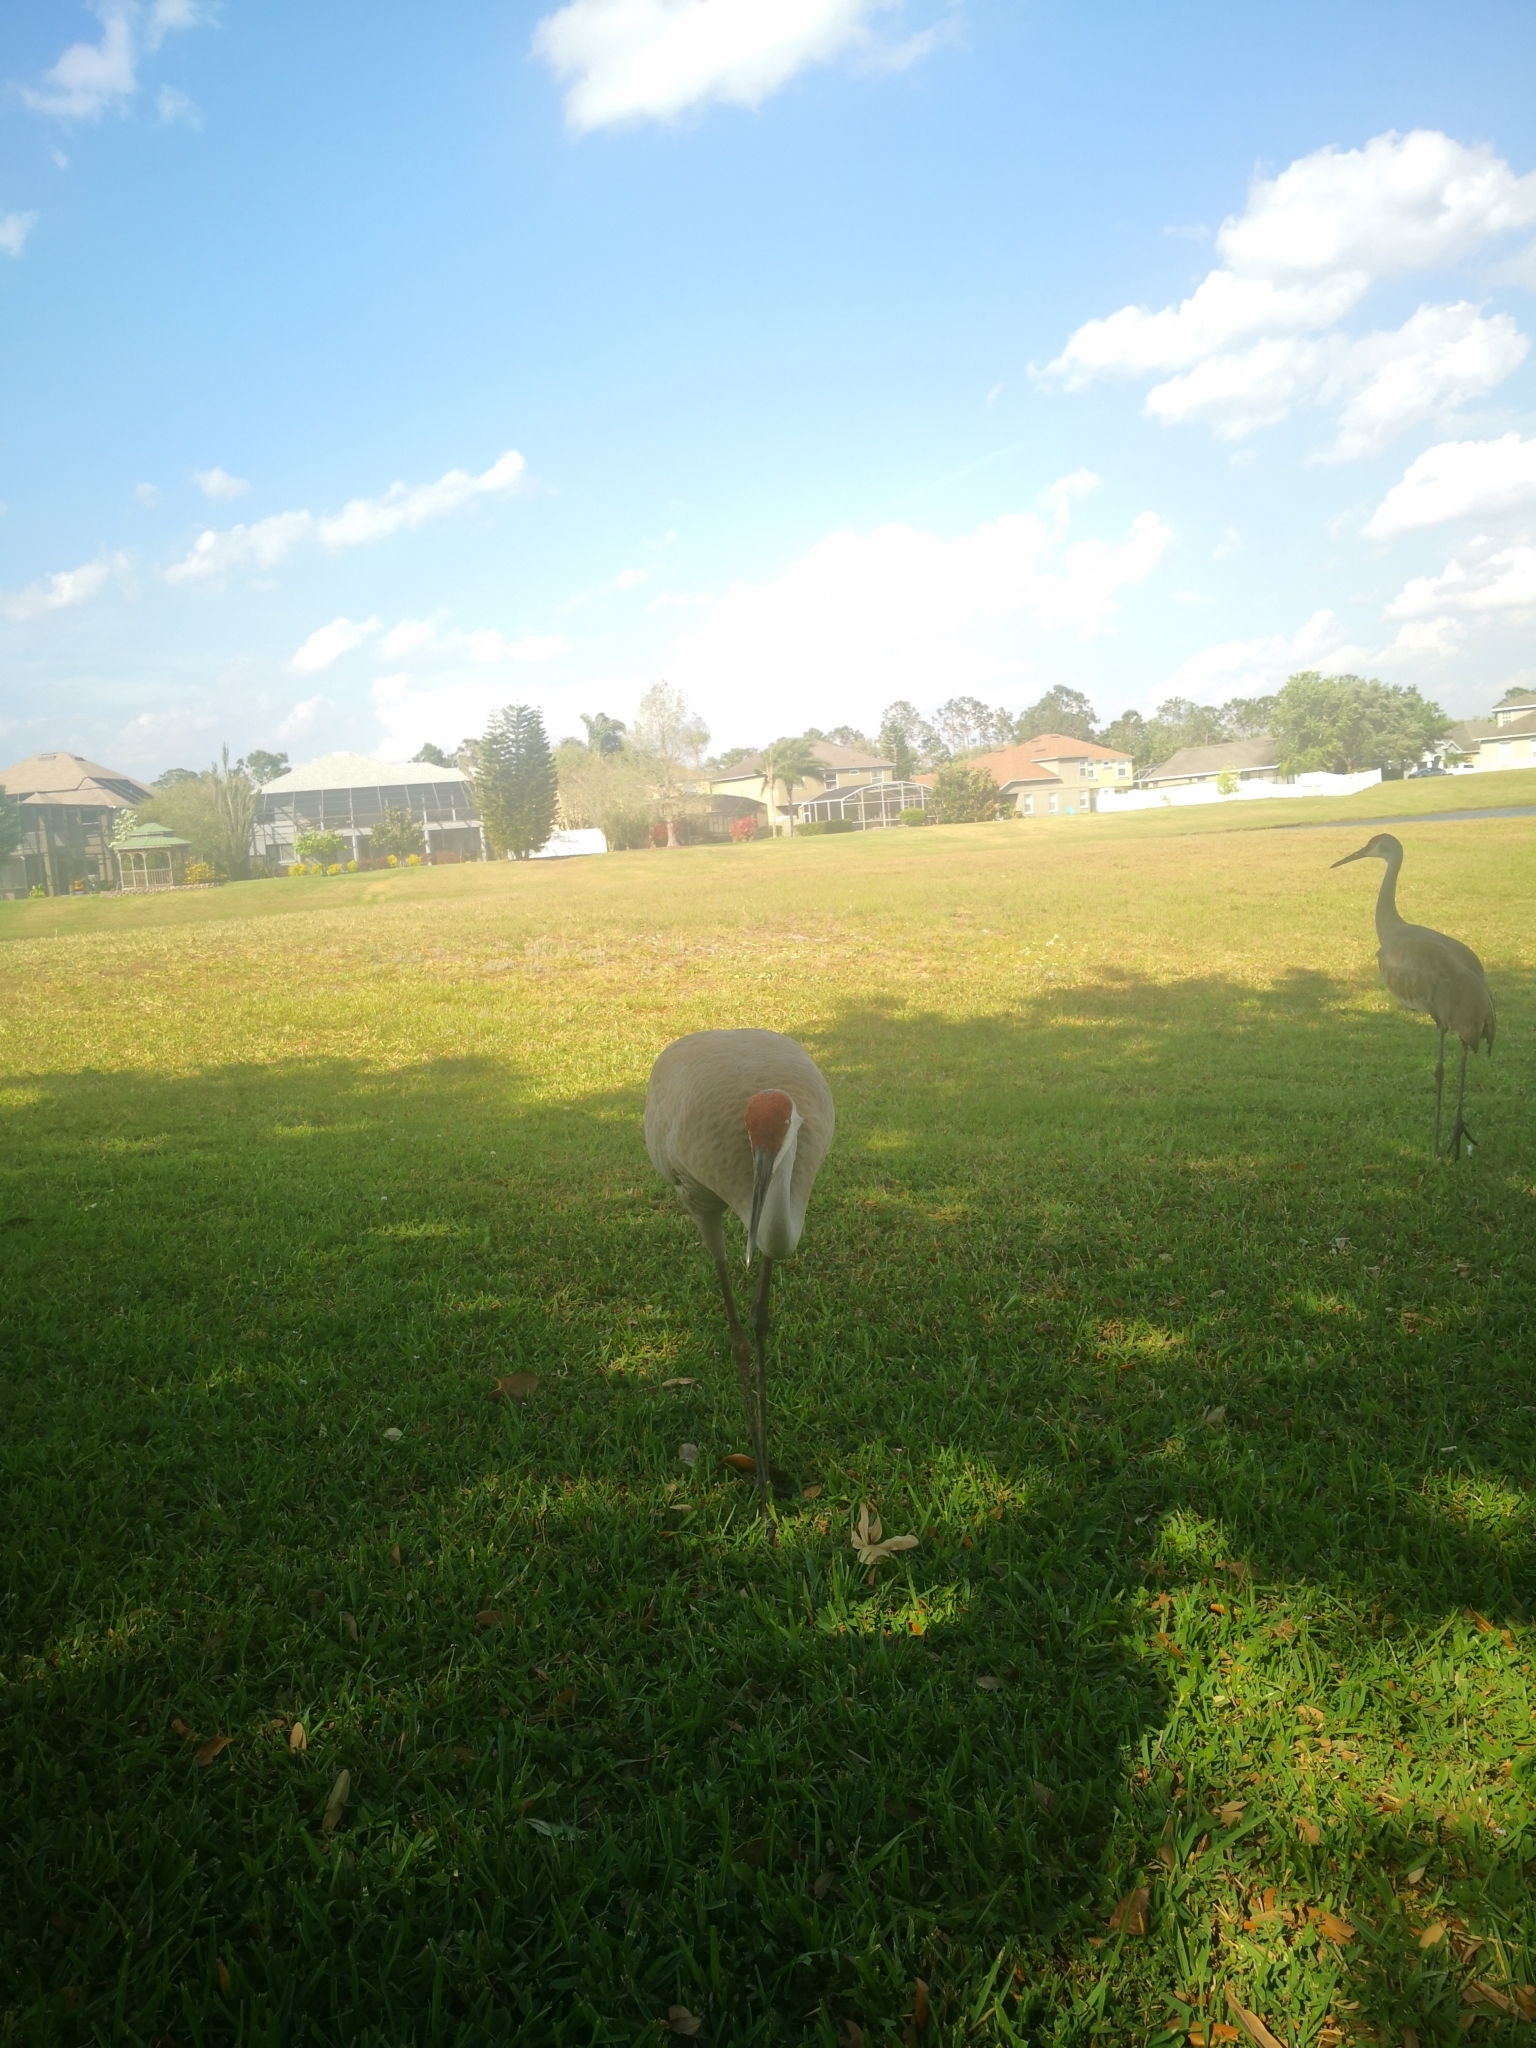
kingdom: Animalia
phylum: Chordata
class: Aves
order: Gruiformes
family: Gruidae
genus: Grus
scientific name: Grus canadensis
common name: Sandhill crane
